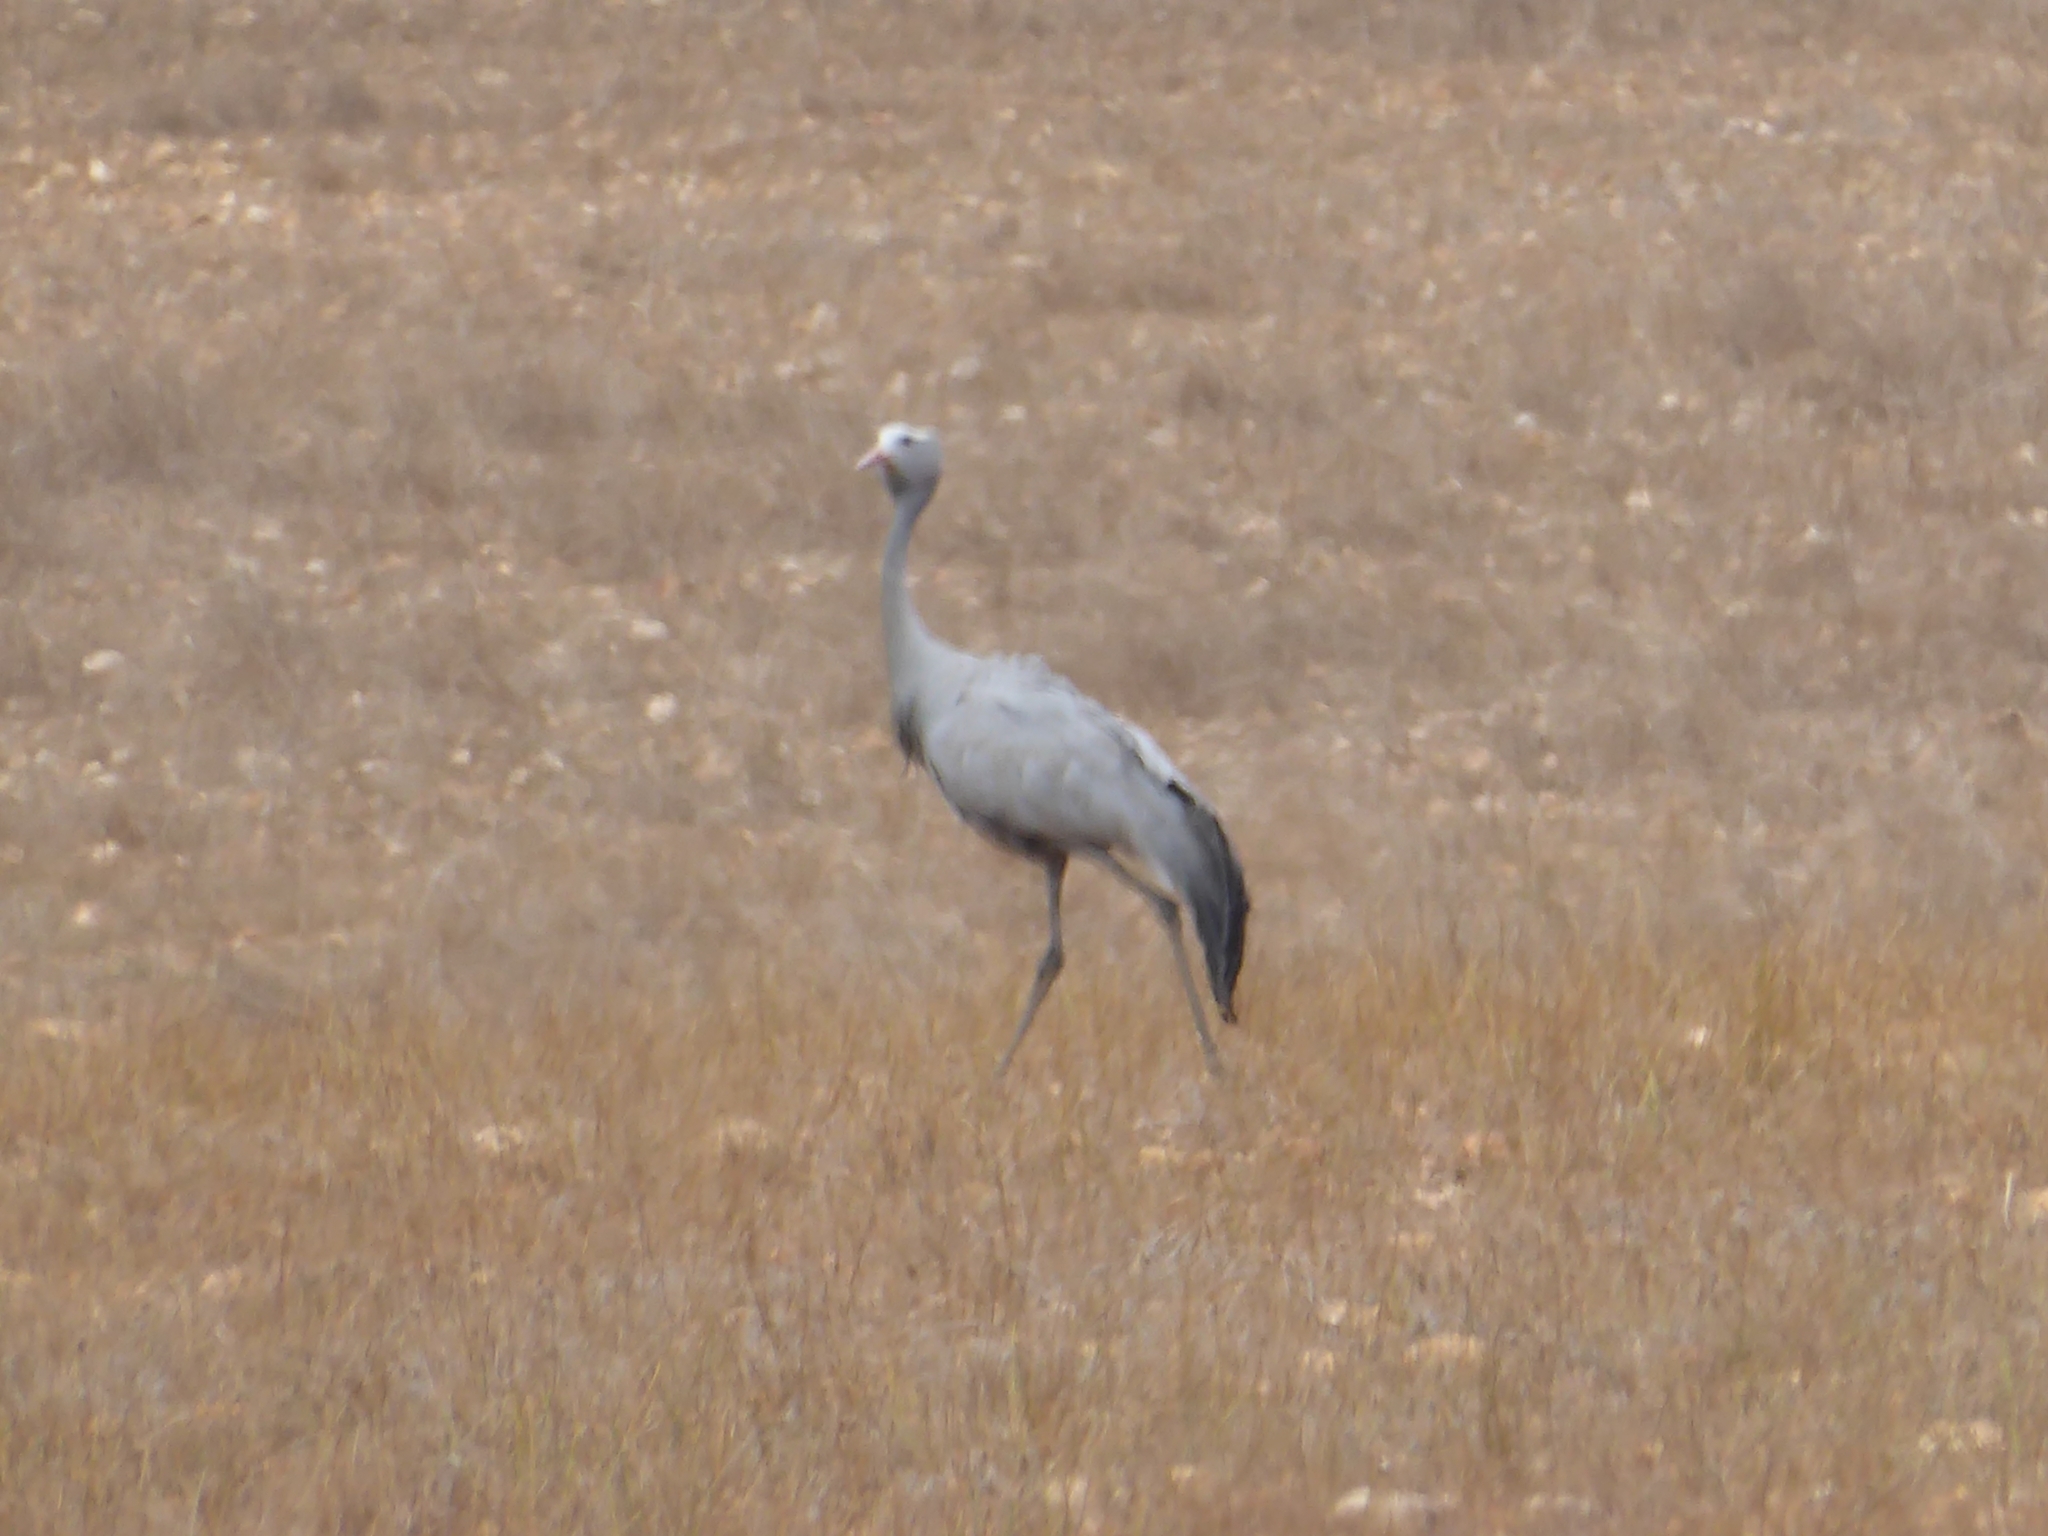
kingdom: Animalia
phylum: Chordata
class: Aves
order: Gruiformes
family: Gruidae
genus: Anthropoides
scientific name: Anthropoides paradiseus
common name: Blue crane
